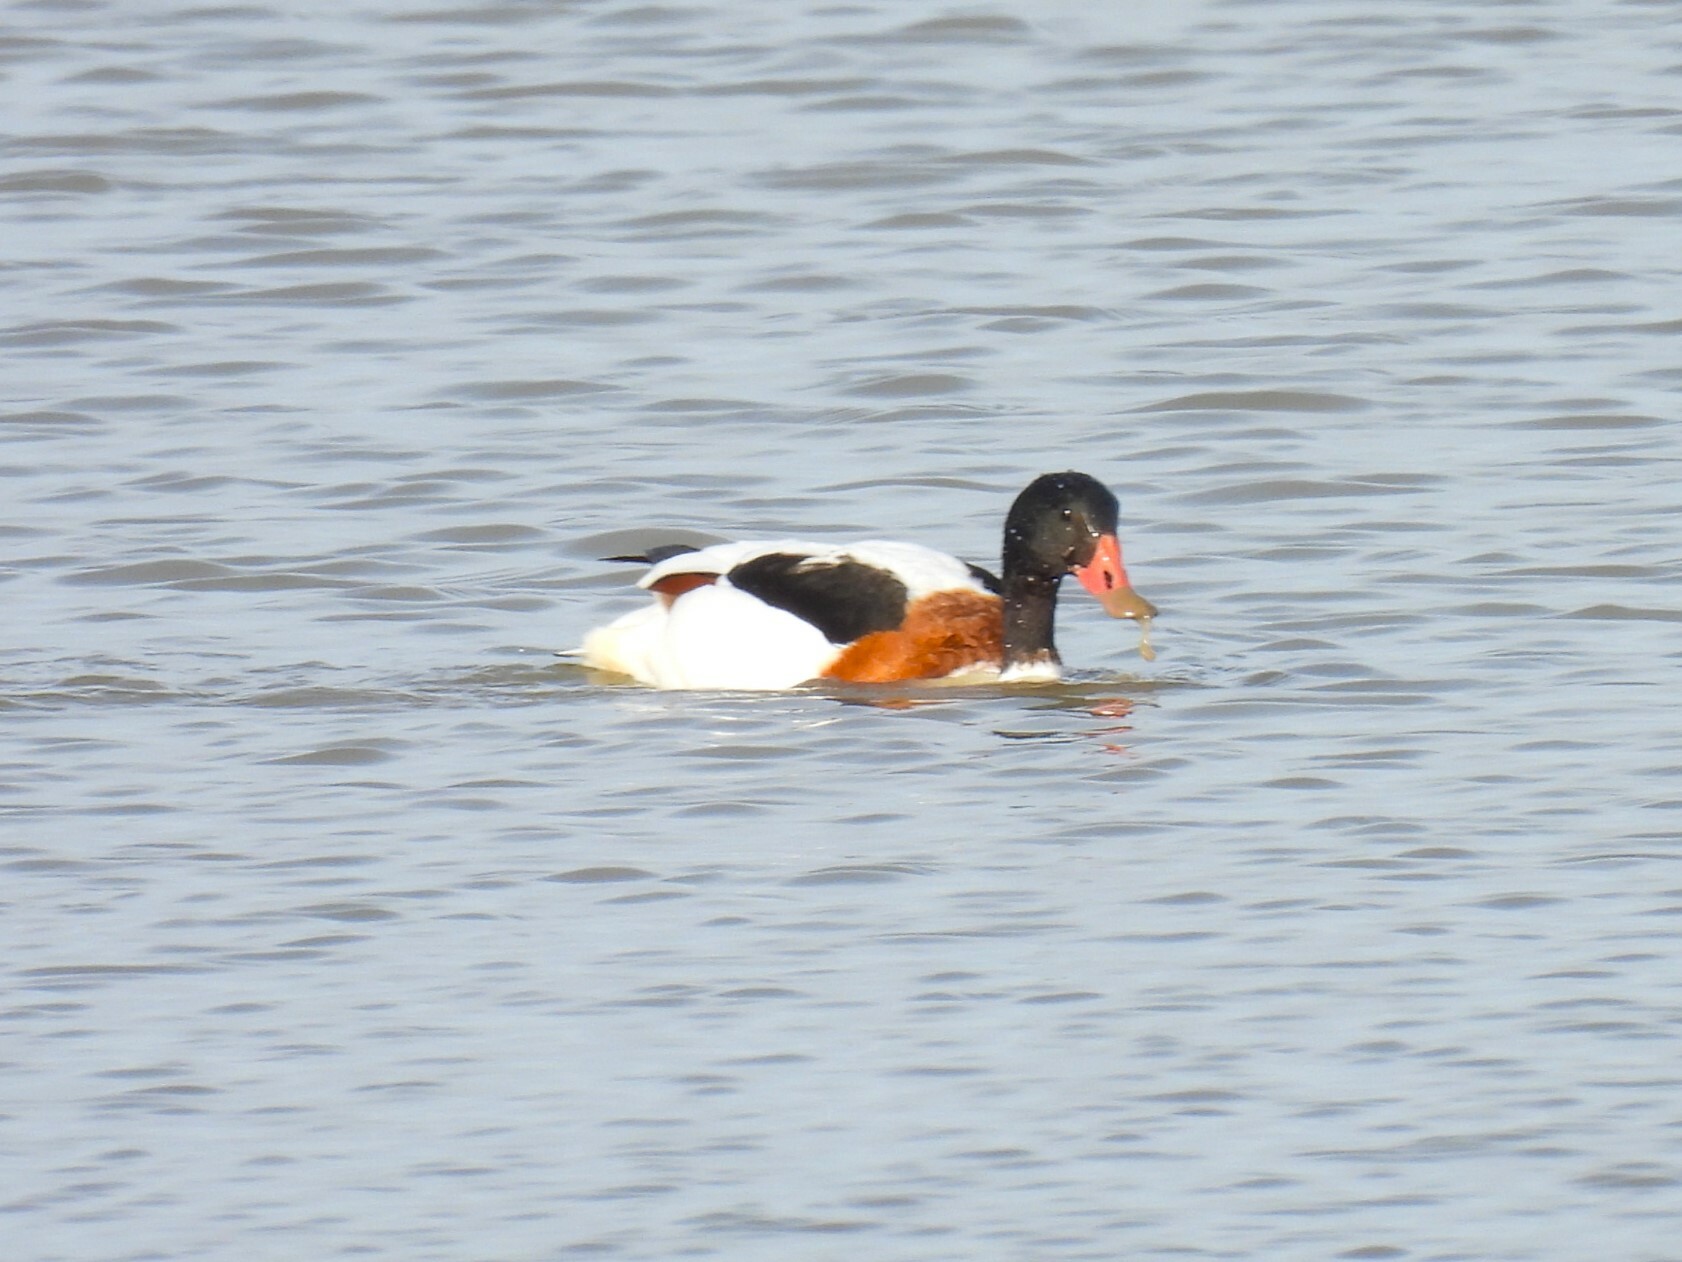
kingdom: Animalia
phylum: Chordata
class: Aves
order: Anseriformes
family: Anatidae
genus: Tadorna
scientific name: Tadorna tadorna
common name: Common shelduck
